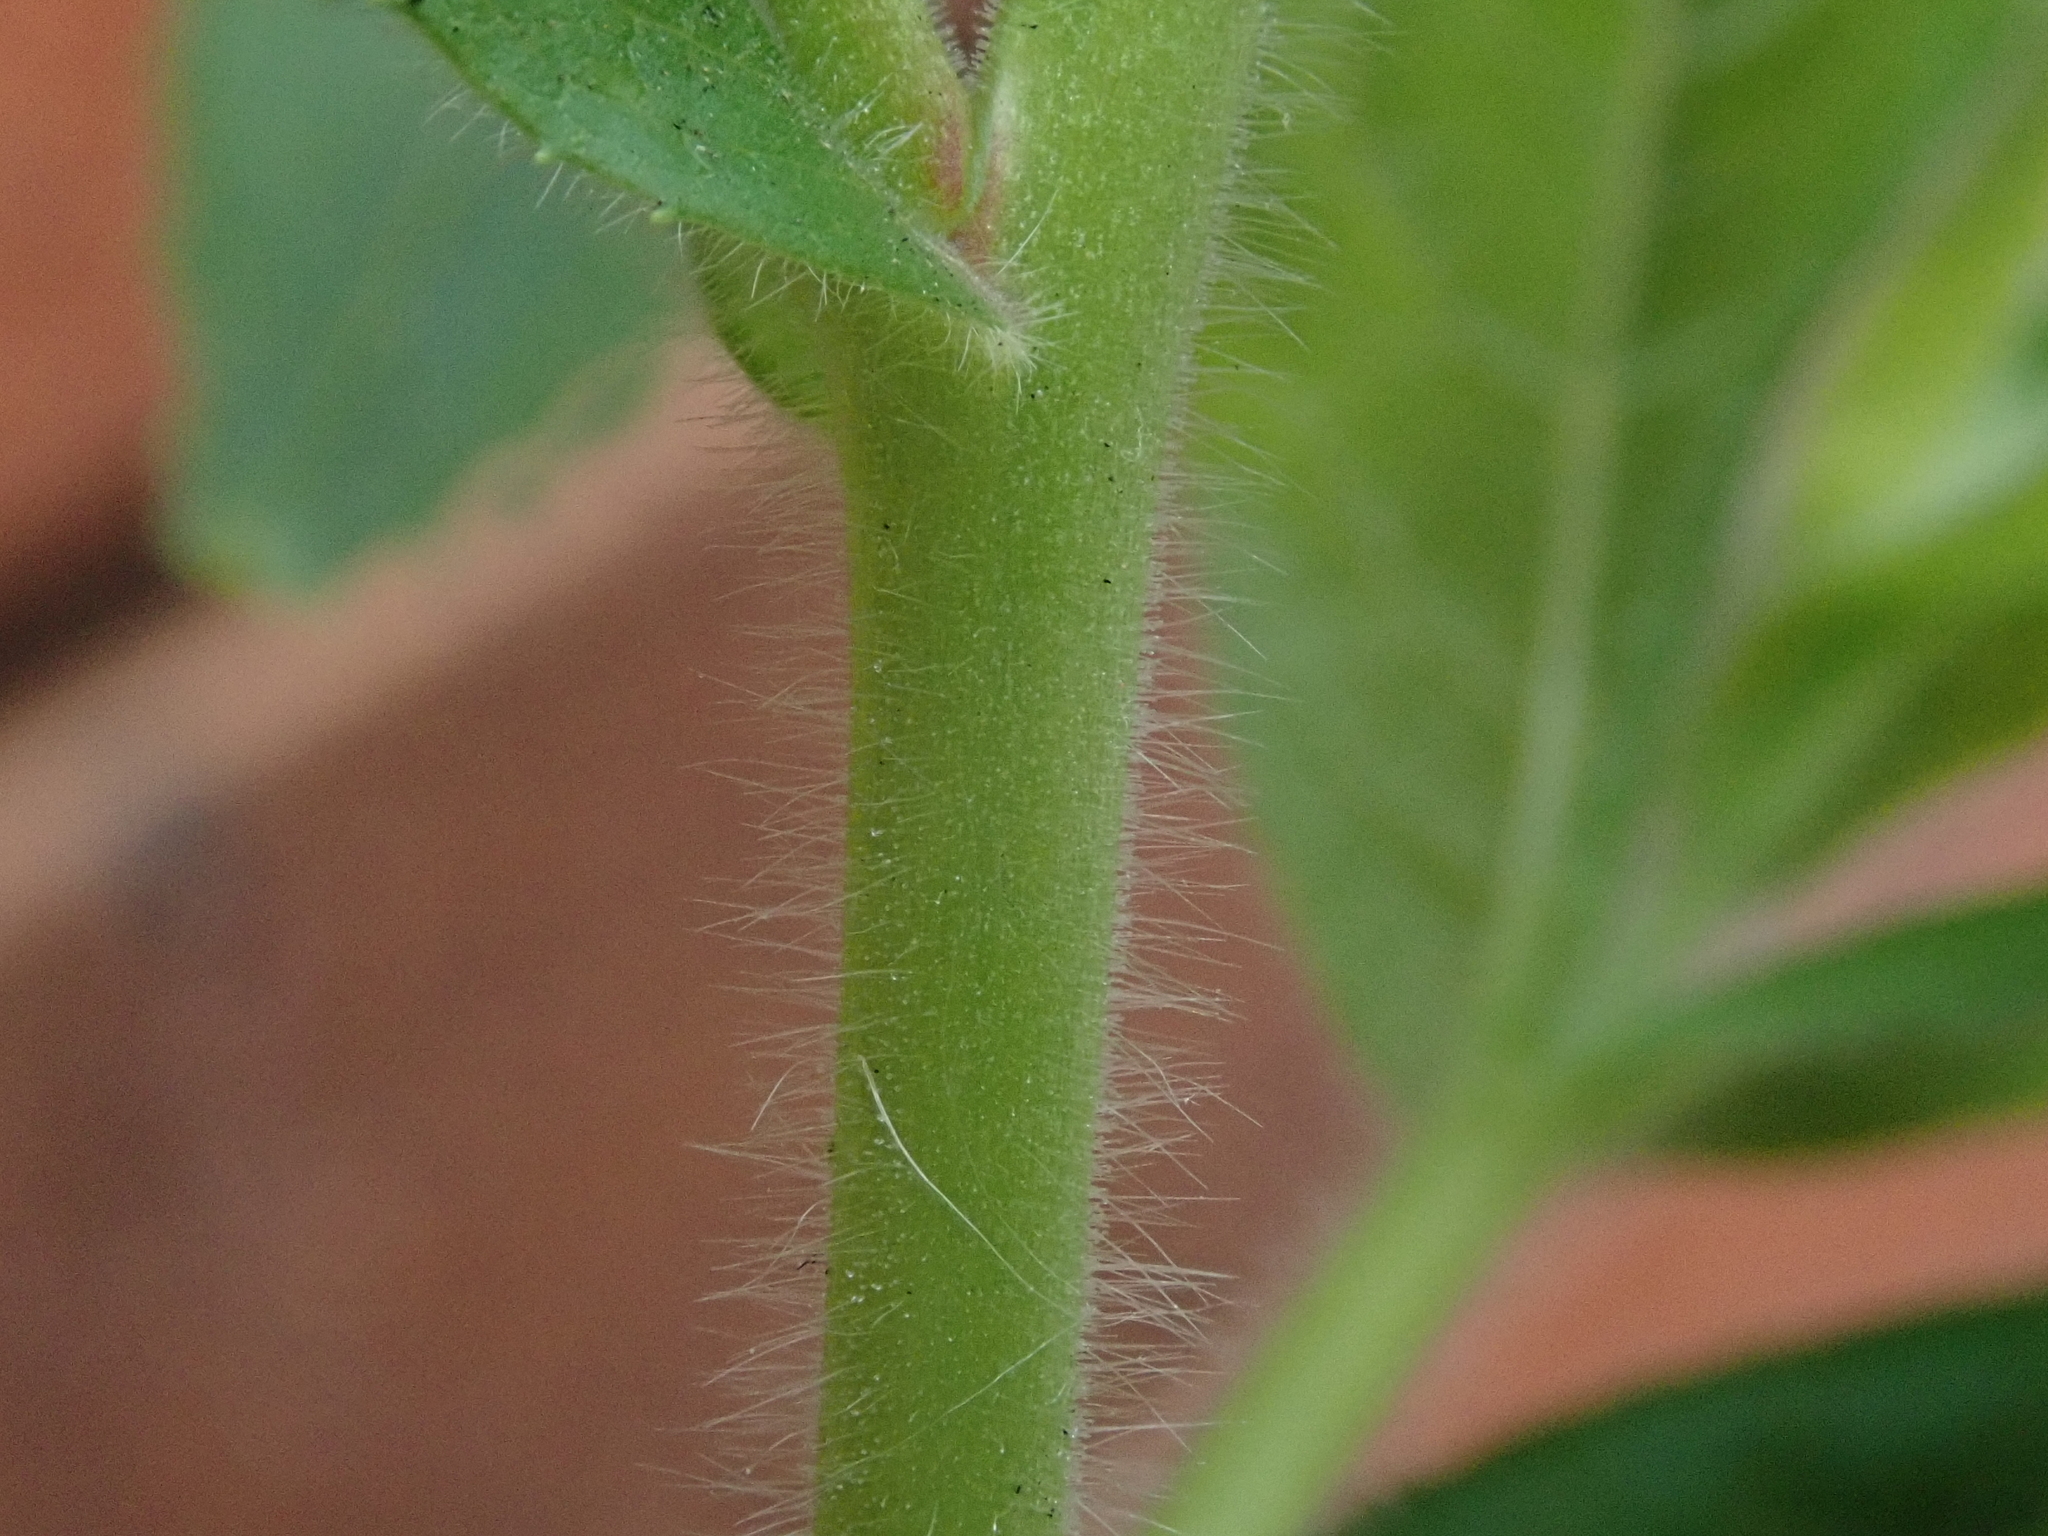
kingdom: Plantae
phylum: Tracheophyta
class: Magnoliopsida
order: Myrtales
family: Onagraceae
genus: Epilobium
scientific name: Epilobium hirsutum
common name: Great willowherb
